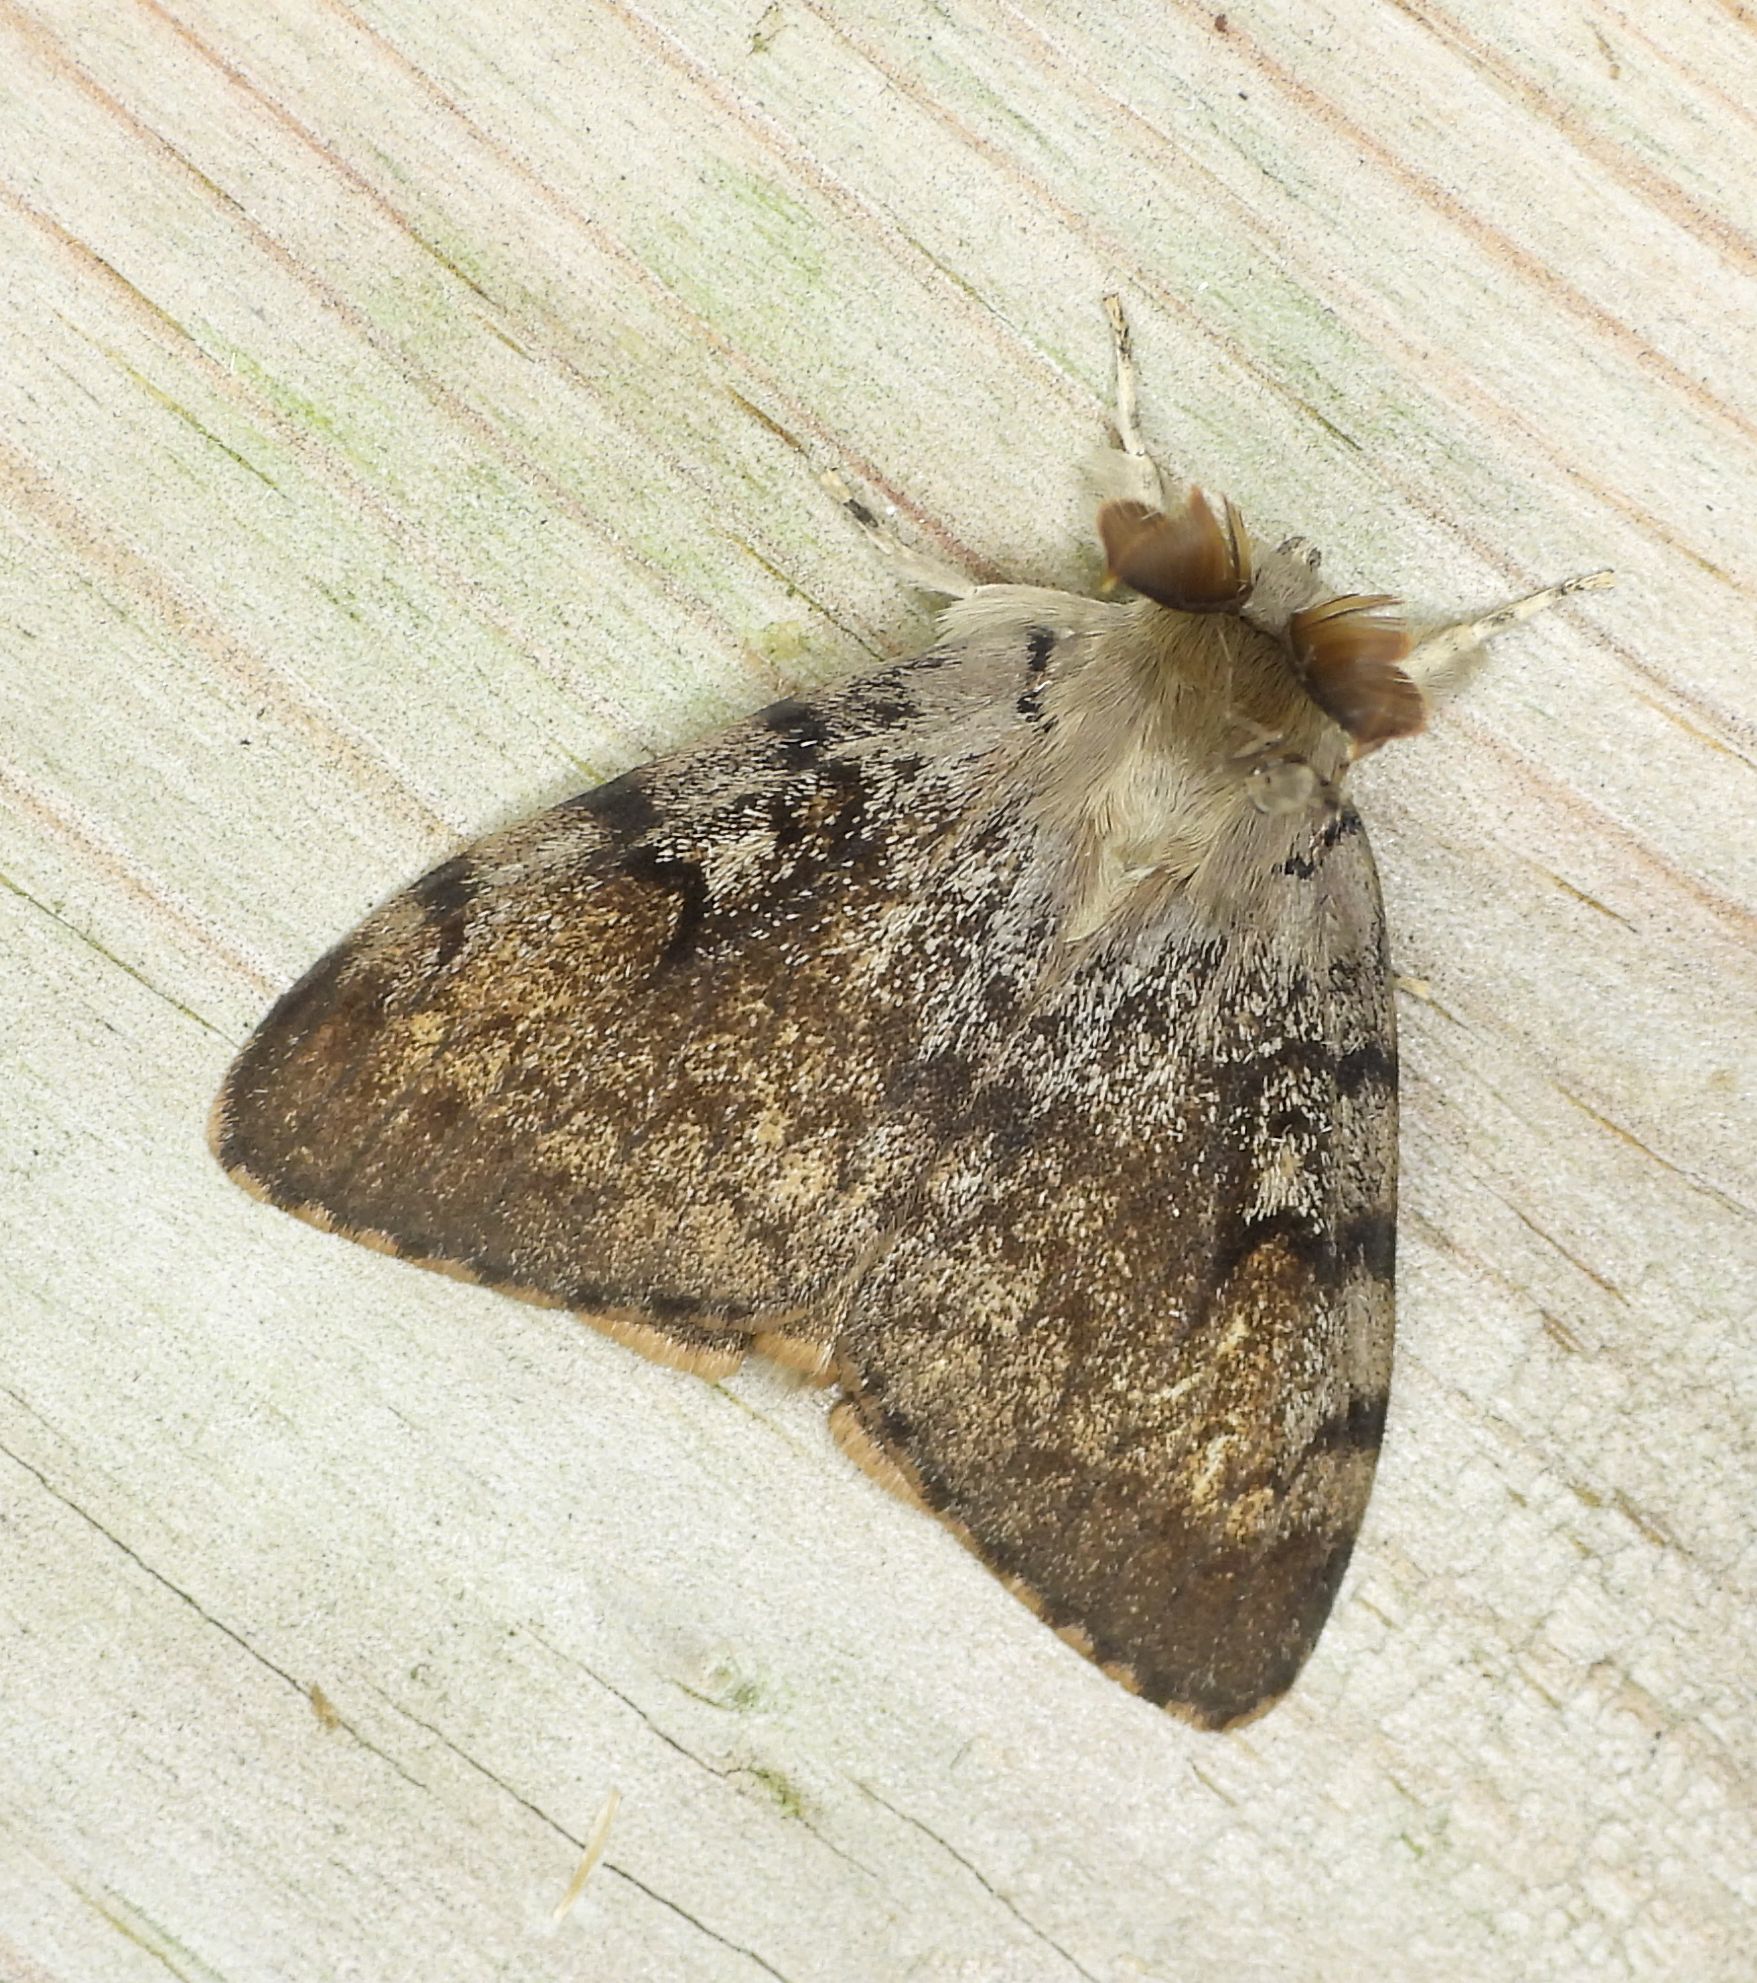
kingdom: Animalia
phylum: Arthropoda
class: Insecta
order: Lepidoptera
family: Erebidae
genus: Lymantria
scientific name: Lymantria dispar
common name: Gypsy moth
